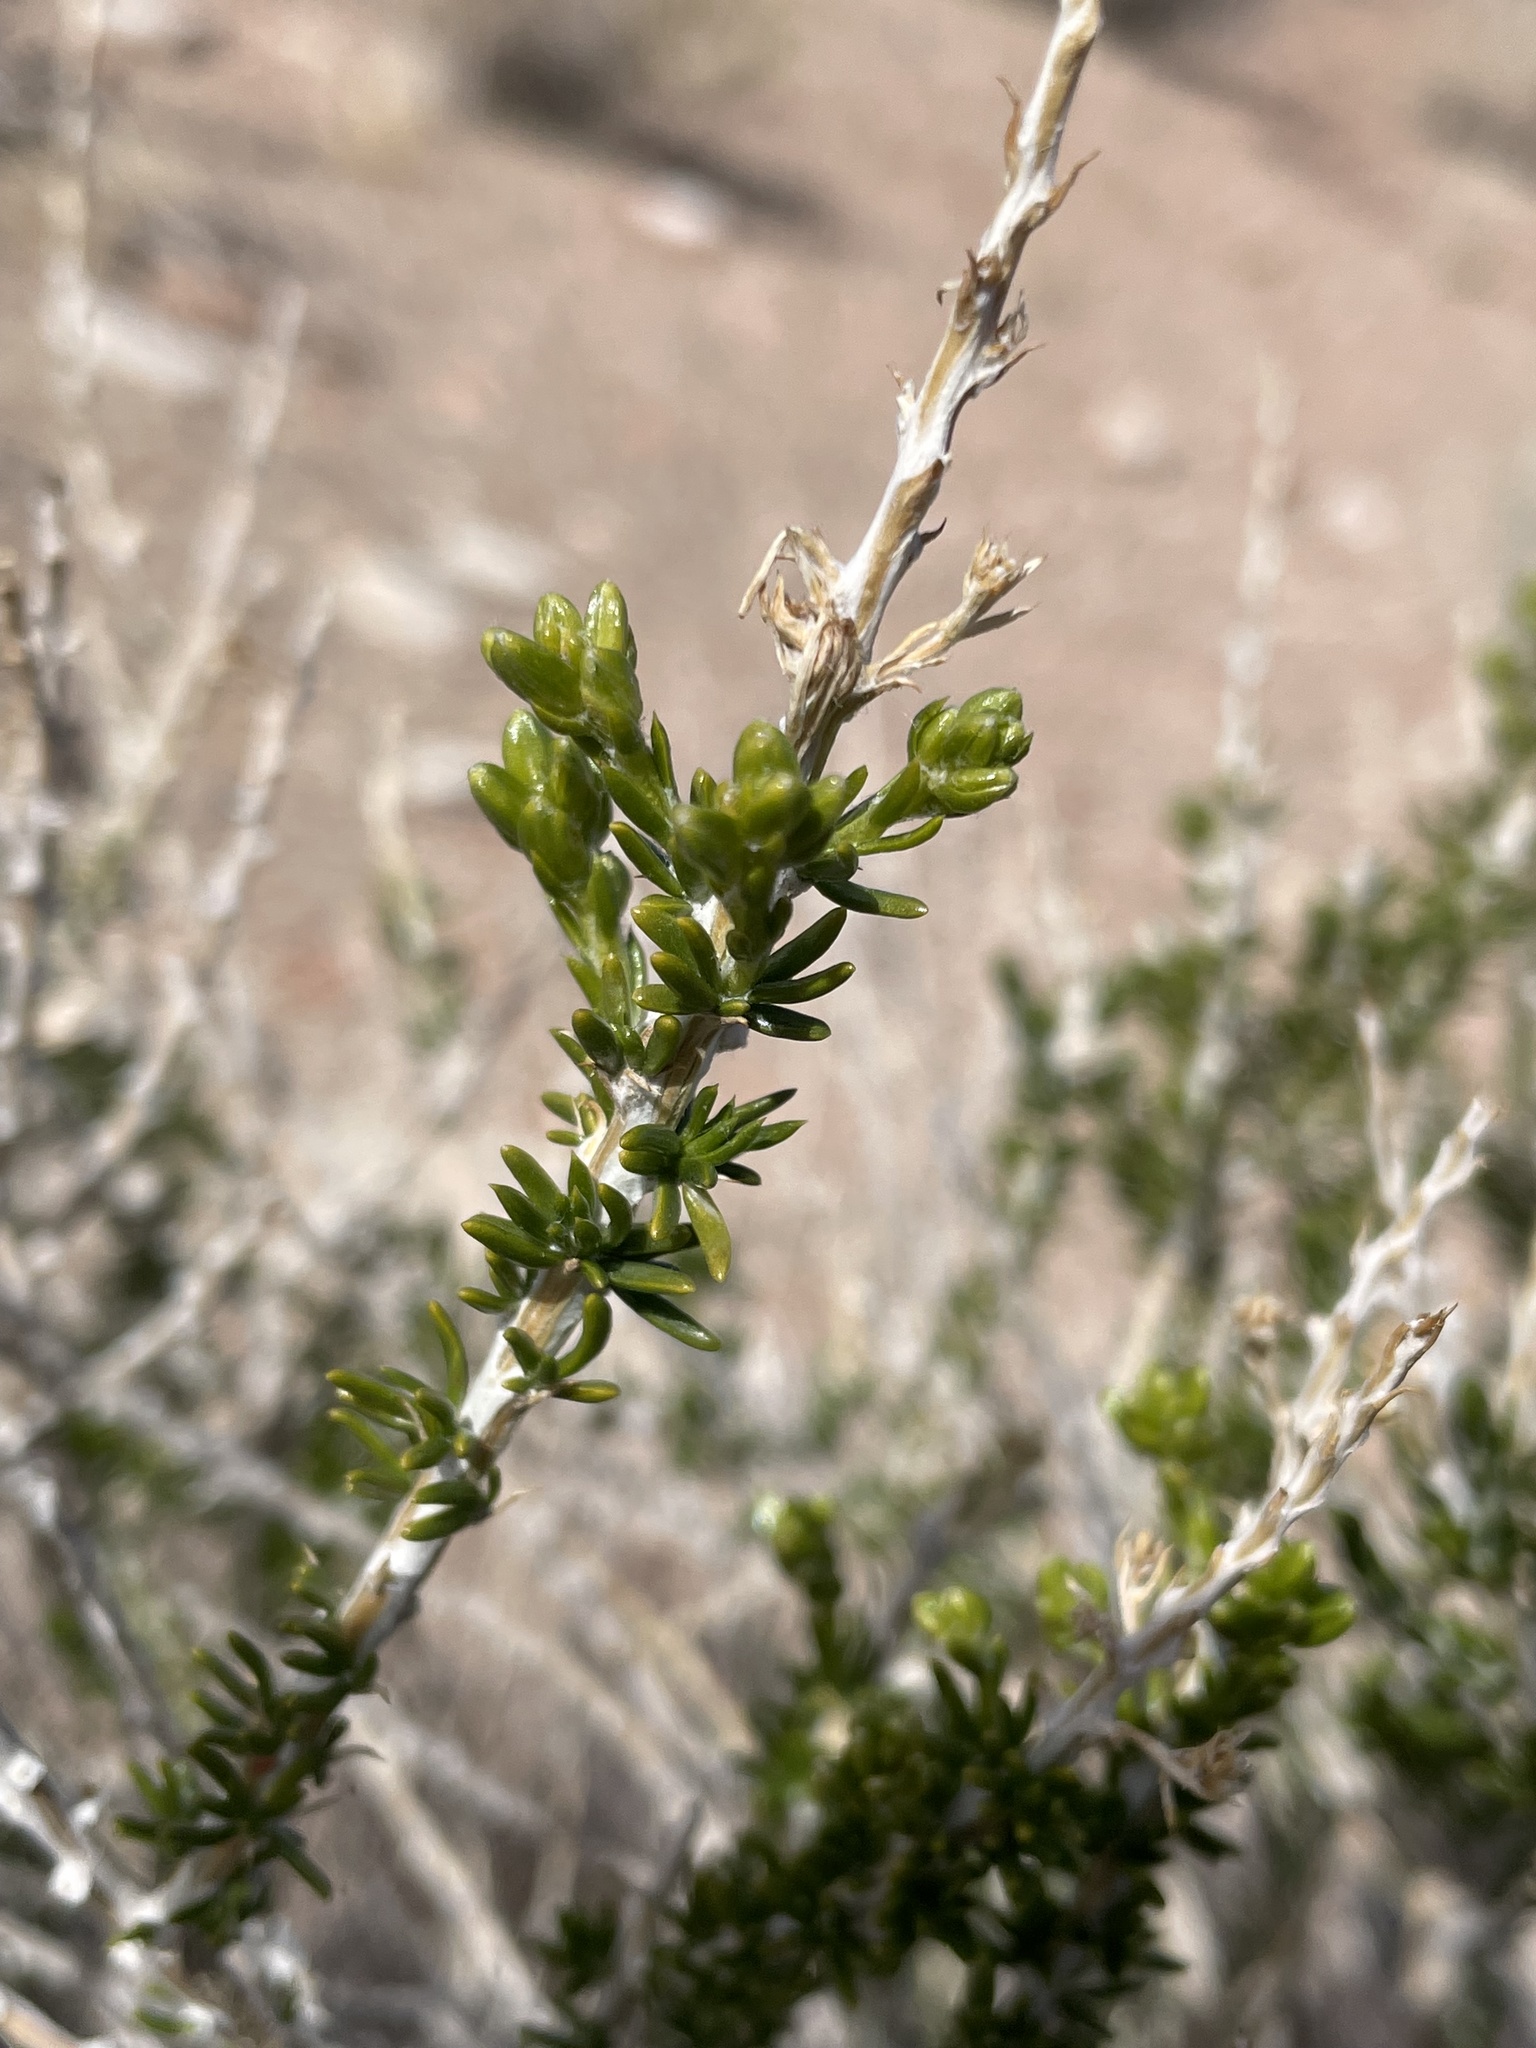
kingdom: Plantae
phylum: Tracheophyta
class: Magnoliopsida
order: Asterales
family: Asteraceae
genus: Tetradymia
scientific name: Tetradymia glabrata
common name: Smooth tetradymia
